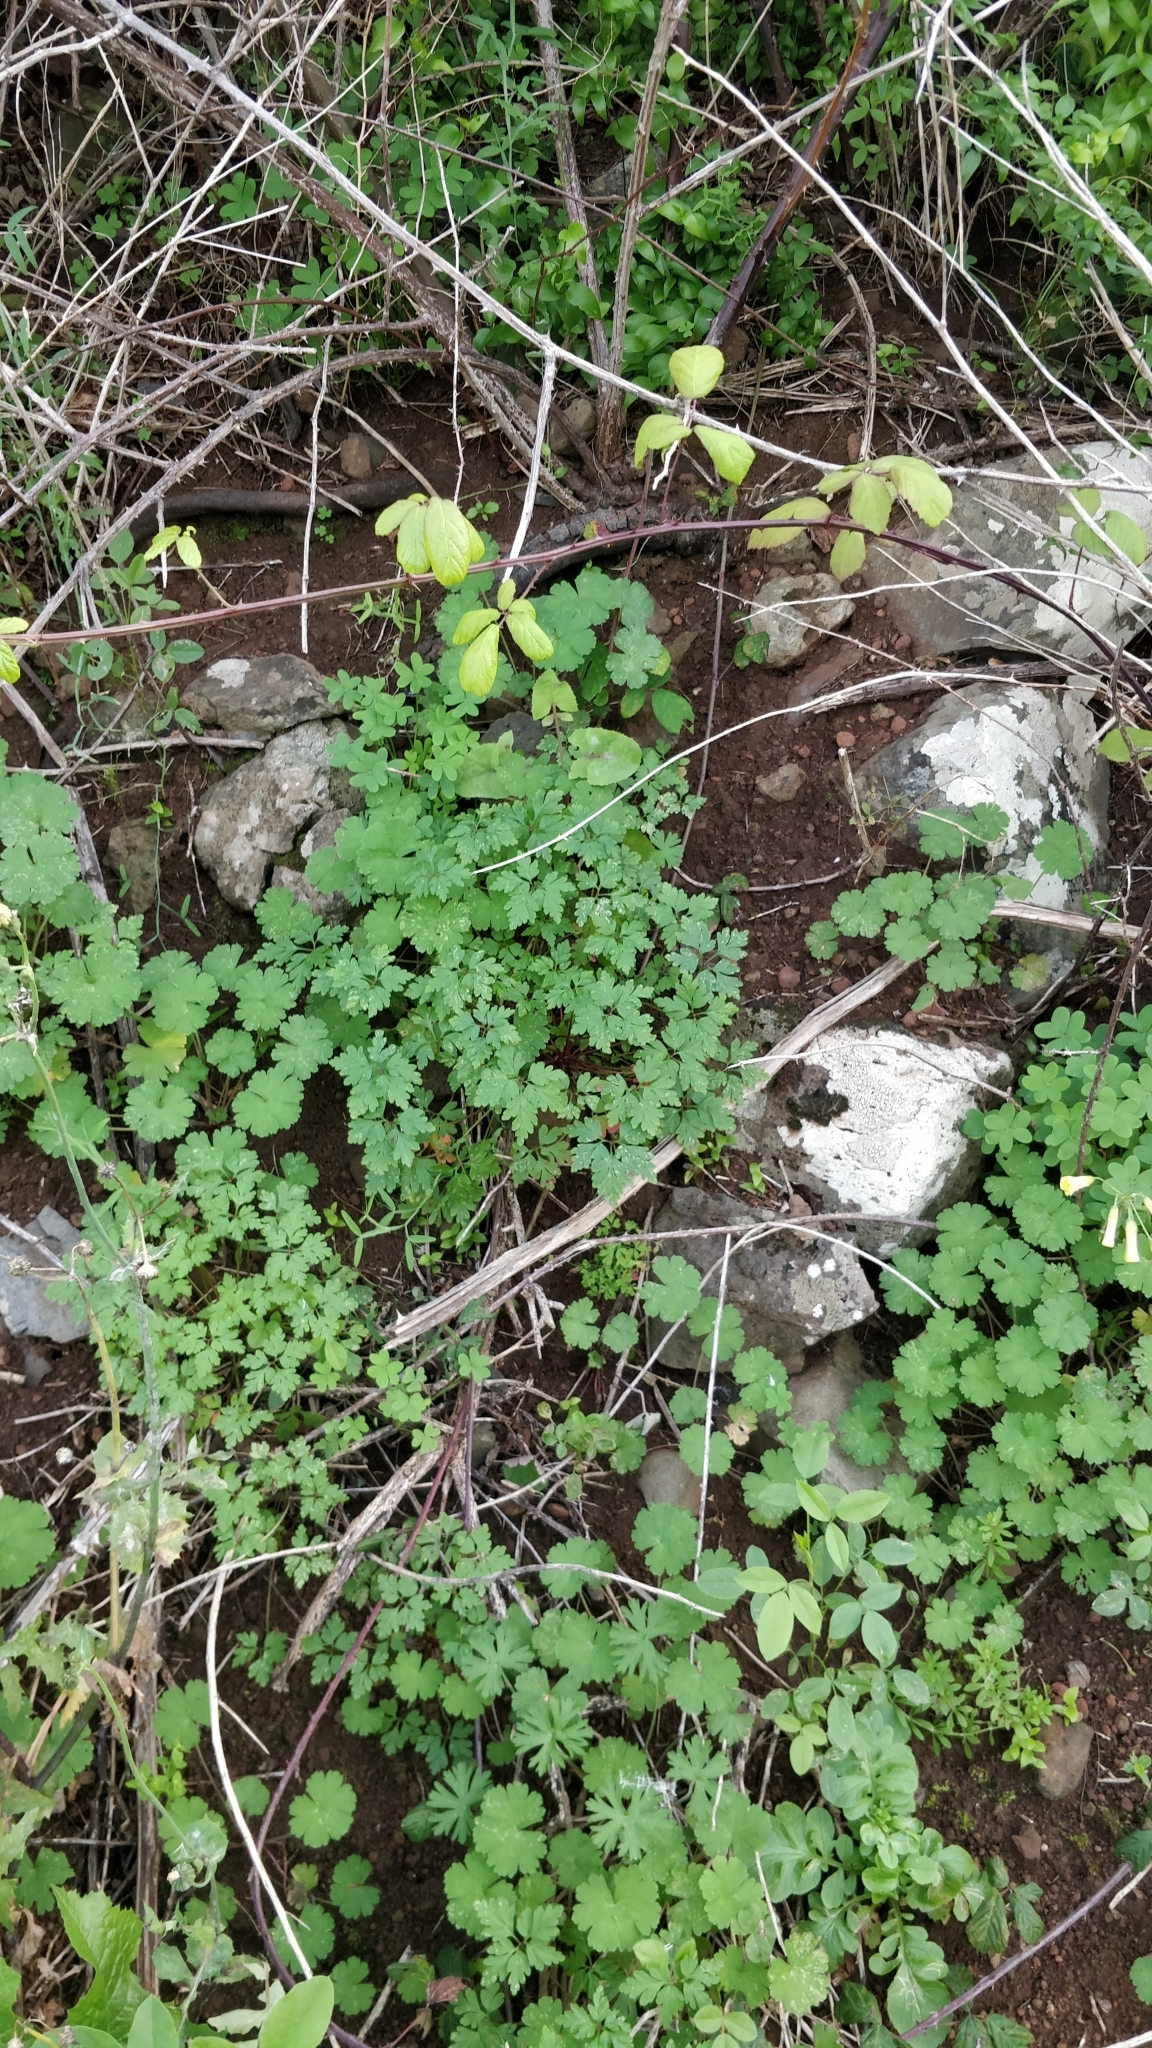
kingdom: Plantae
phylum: Tracheophyta
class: Magnoliopsida
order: Geraniales
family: Geraniaceae
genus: Geranium
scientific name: Geranium purpureum
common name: Little-robin
